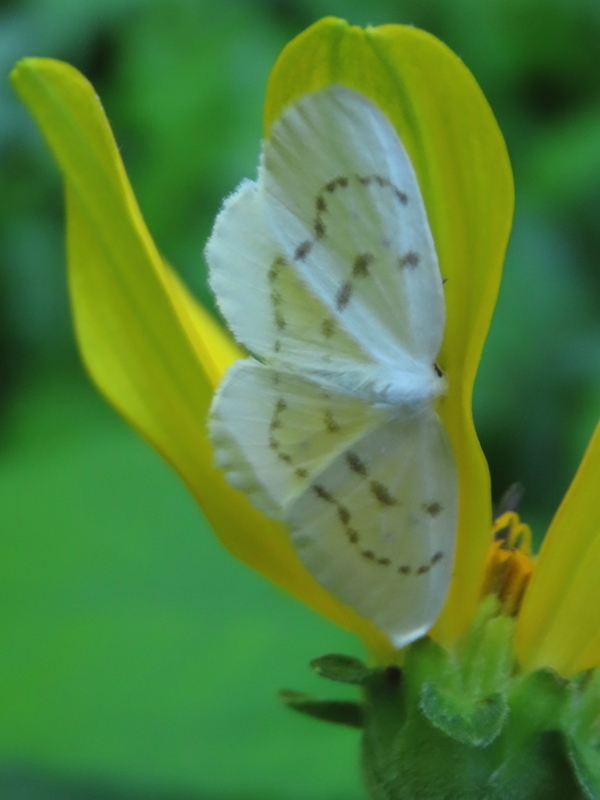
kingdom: Animalia
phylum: Arthropoda
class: Insecta
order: Lepidoptera
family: Drepanidae
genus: Eudeilinia
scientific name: Eudeilinia herminiata
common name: Northern eudeilinea moth
